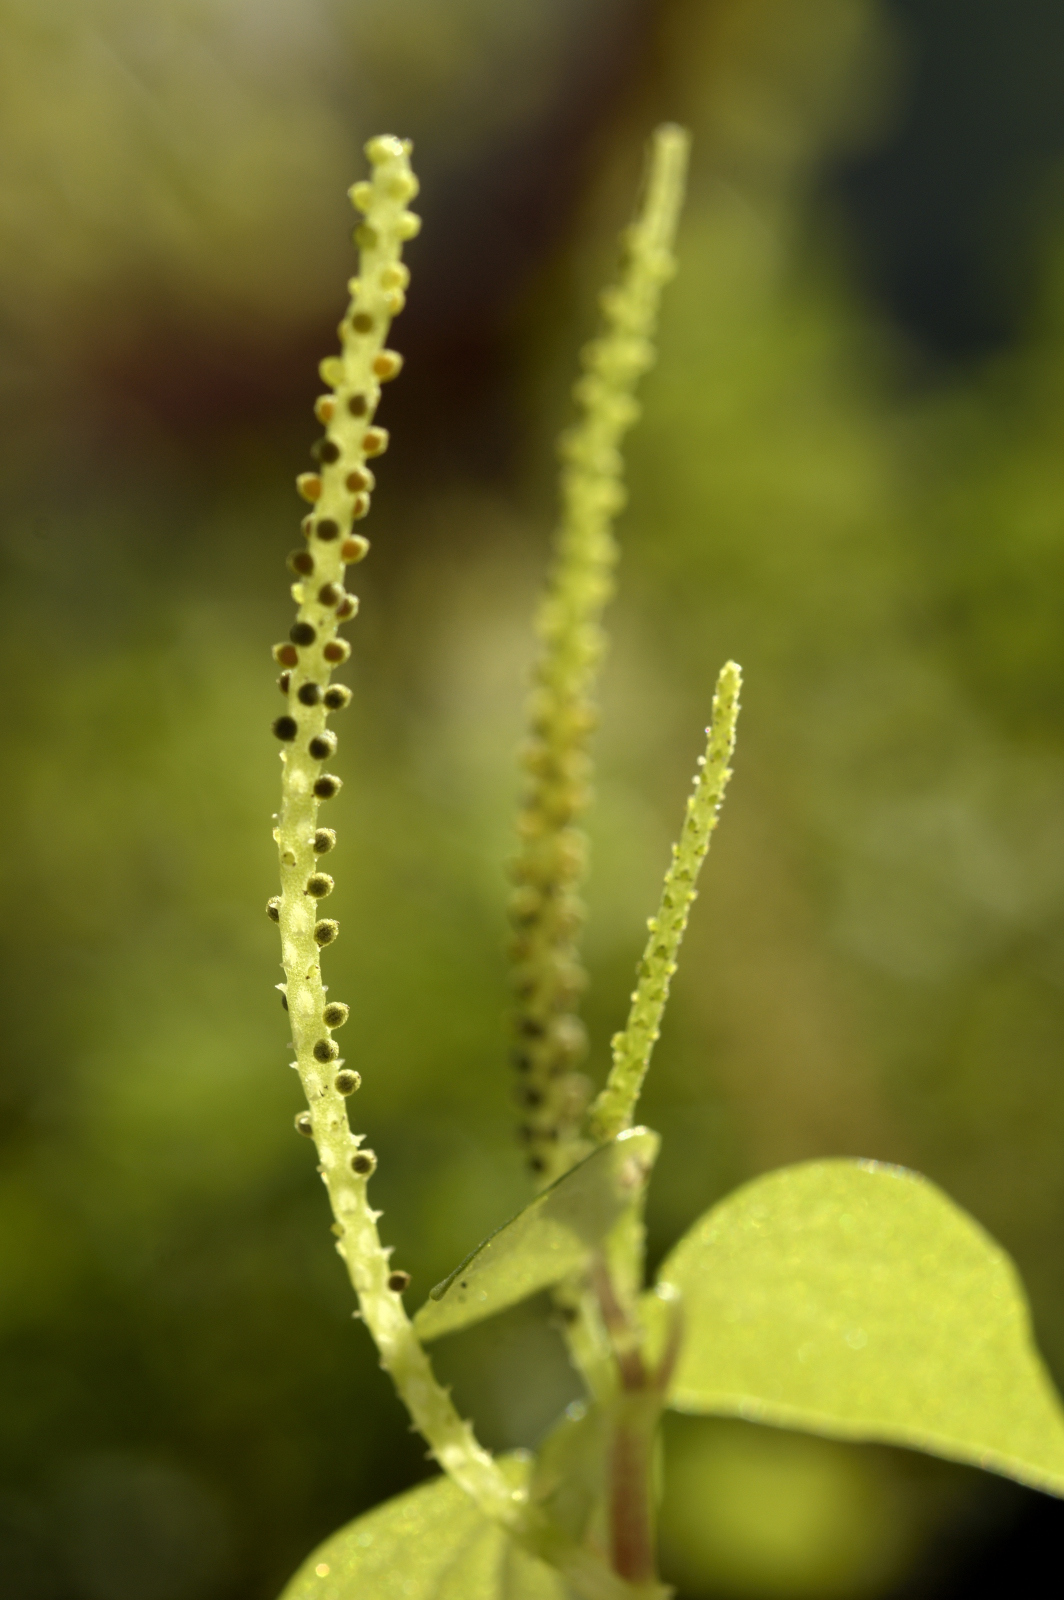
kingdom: Plantae
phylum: Tracheophyta
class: Magnoliopsida
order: Piperales
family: Piperaceae
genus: Peperomia
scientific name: Peperomia pellucida
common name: Man to man
